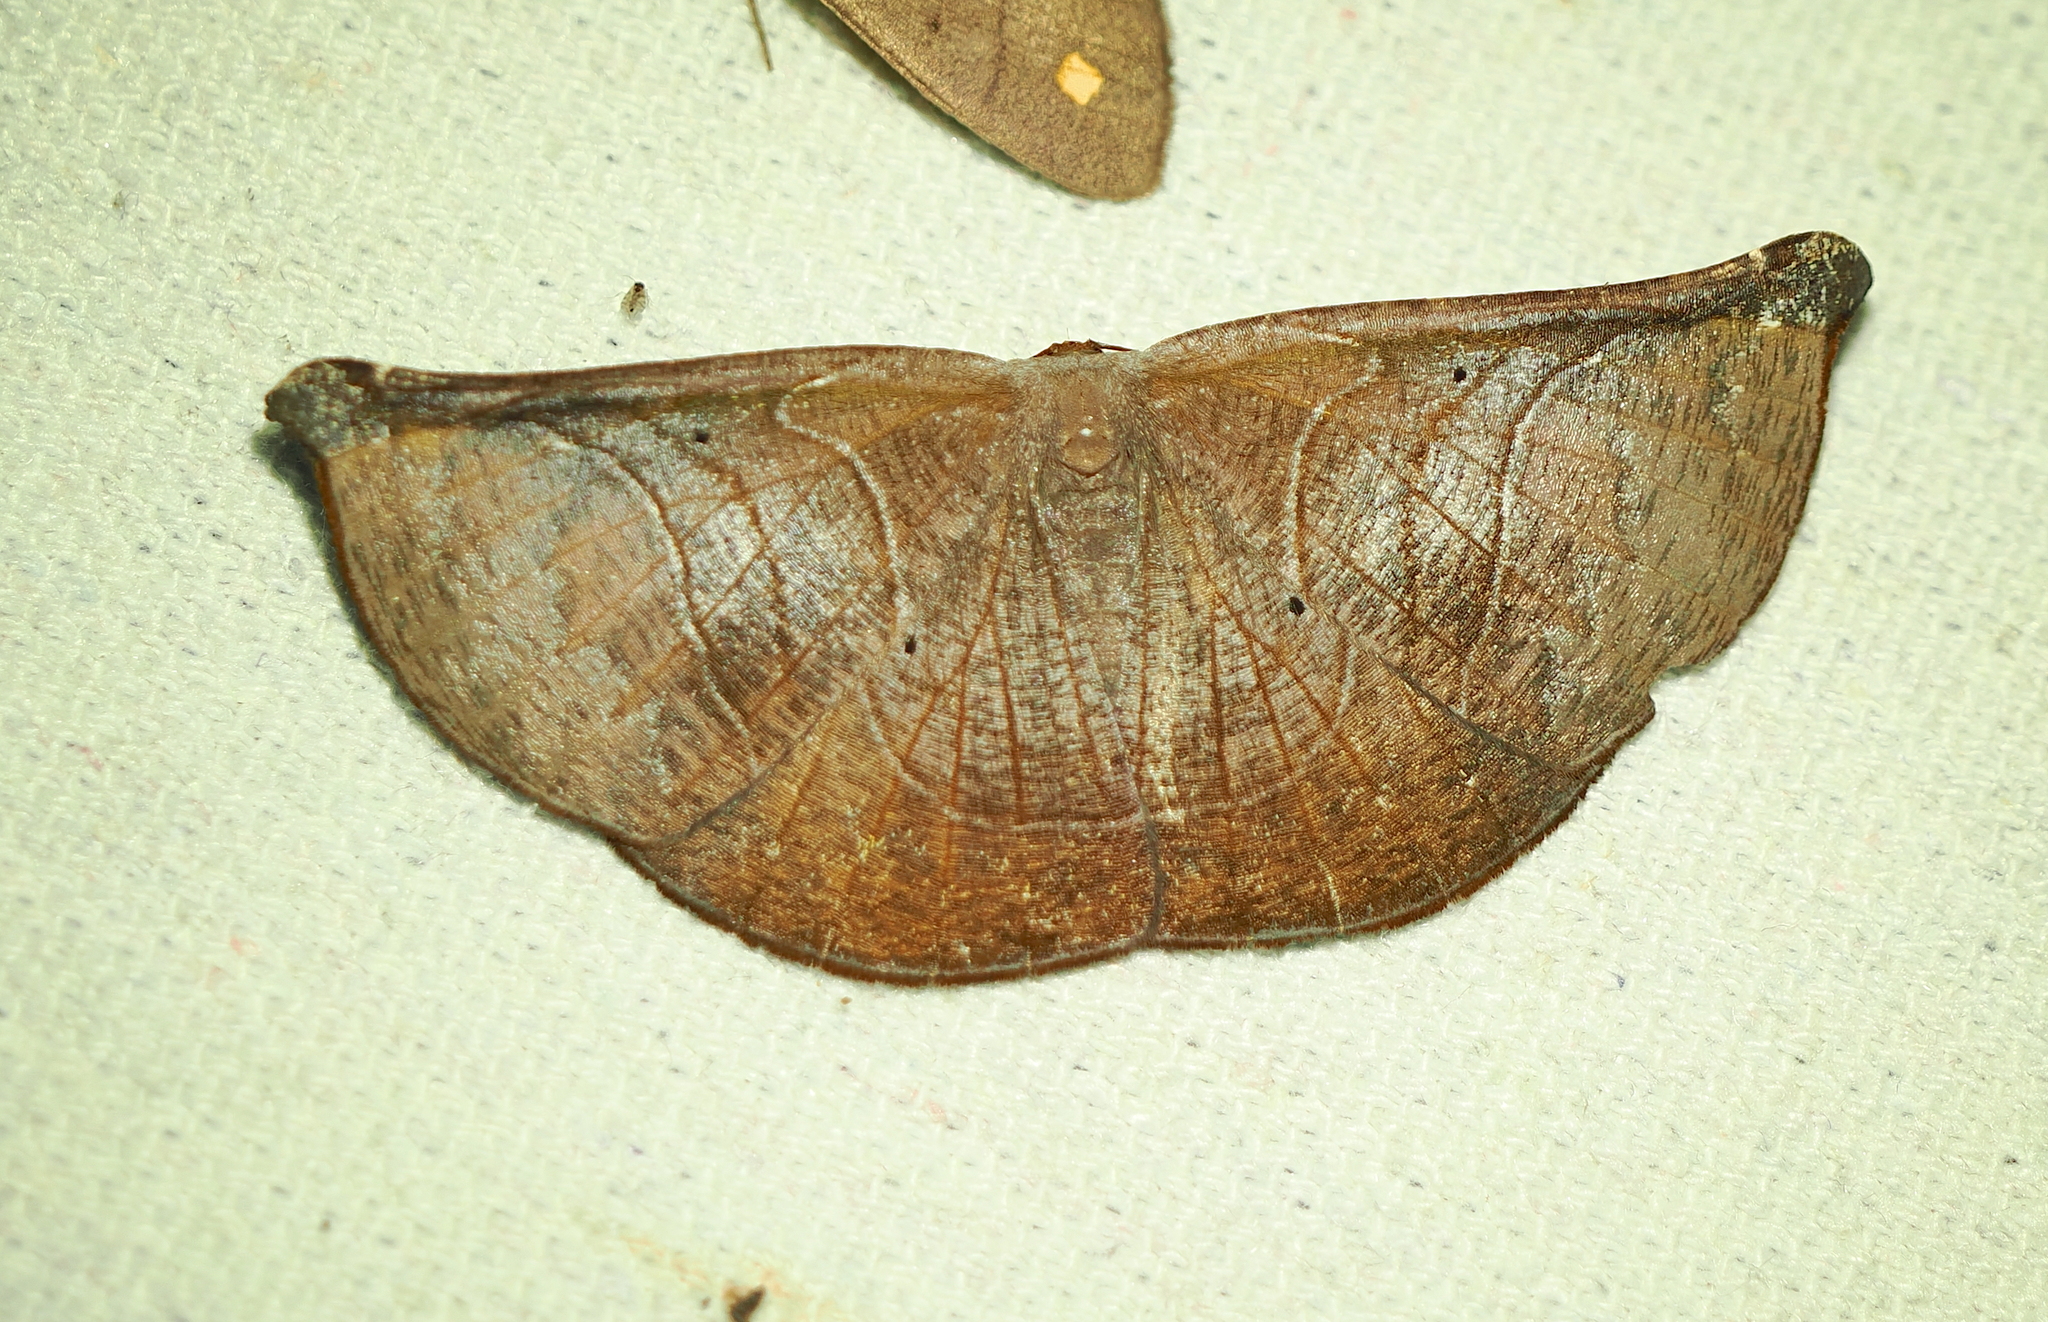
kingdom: Animalia
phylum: Arthropoda
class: Insecta
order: Lepidoptera
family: Geometridae
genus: Cyphoedma
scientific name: Cyphoedma
